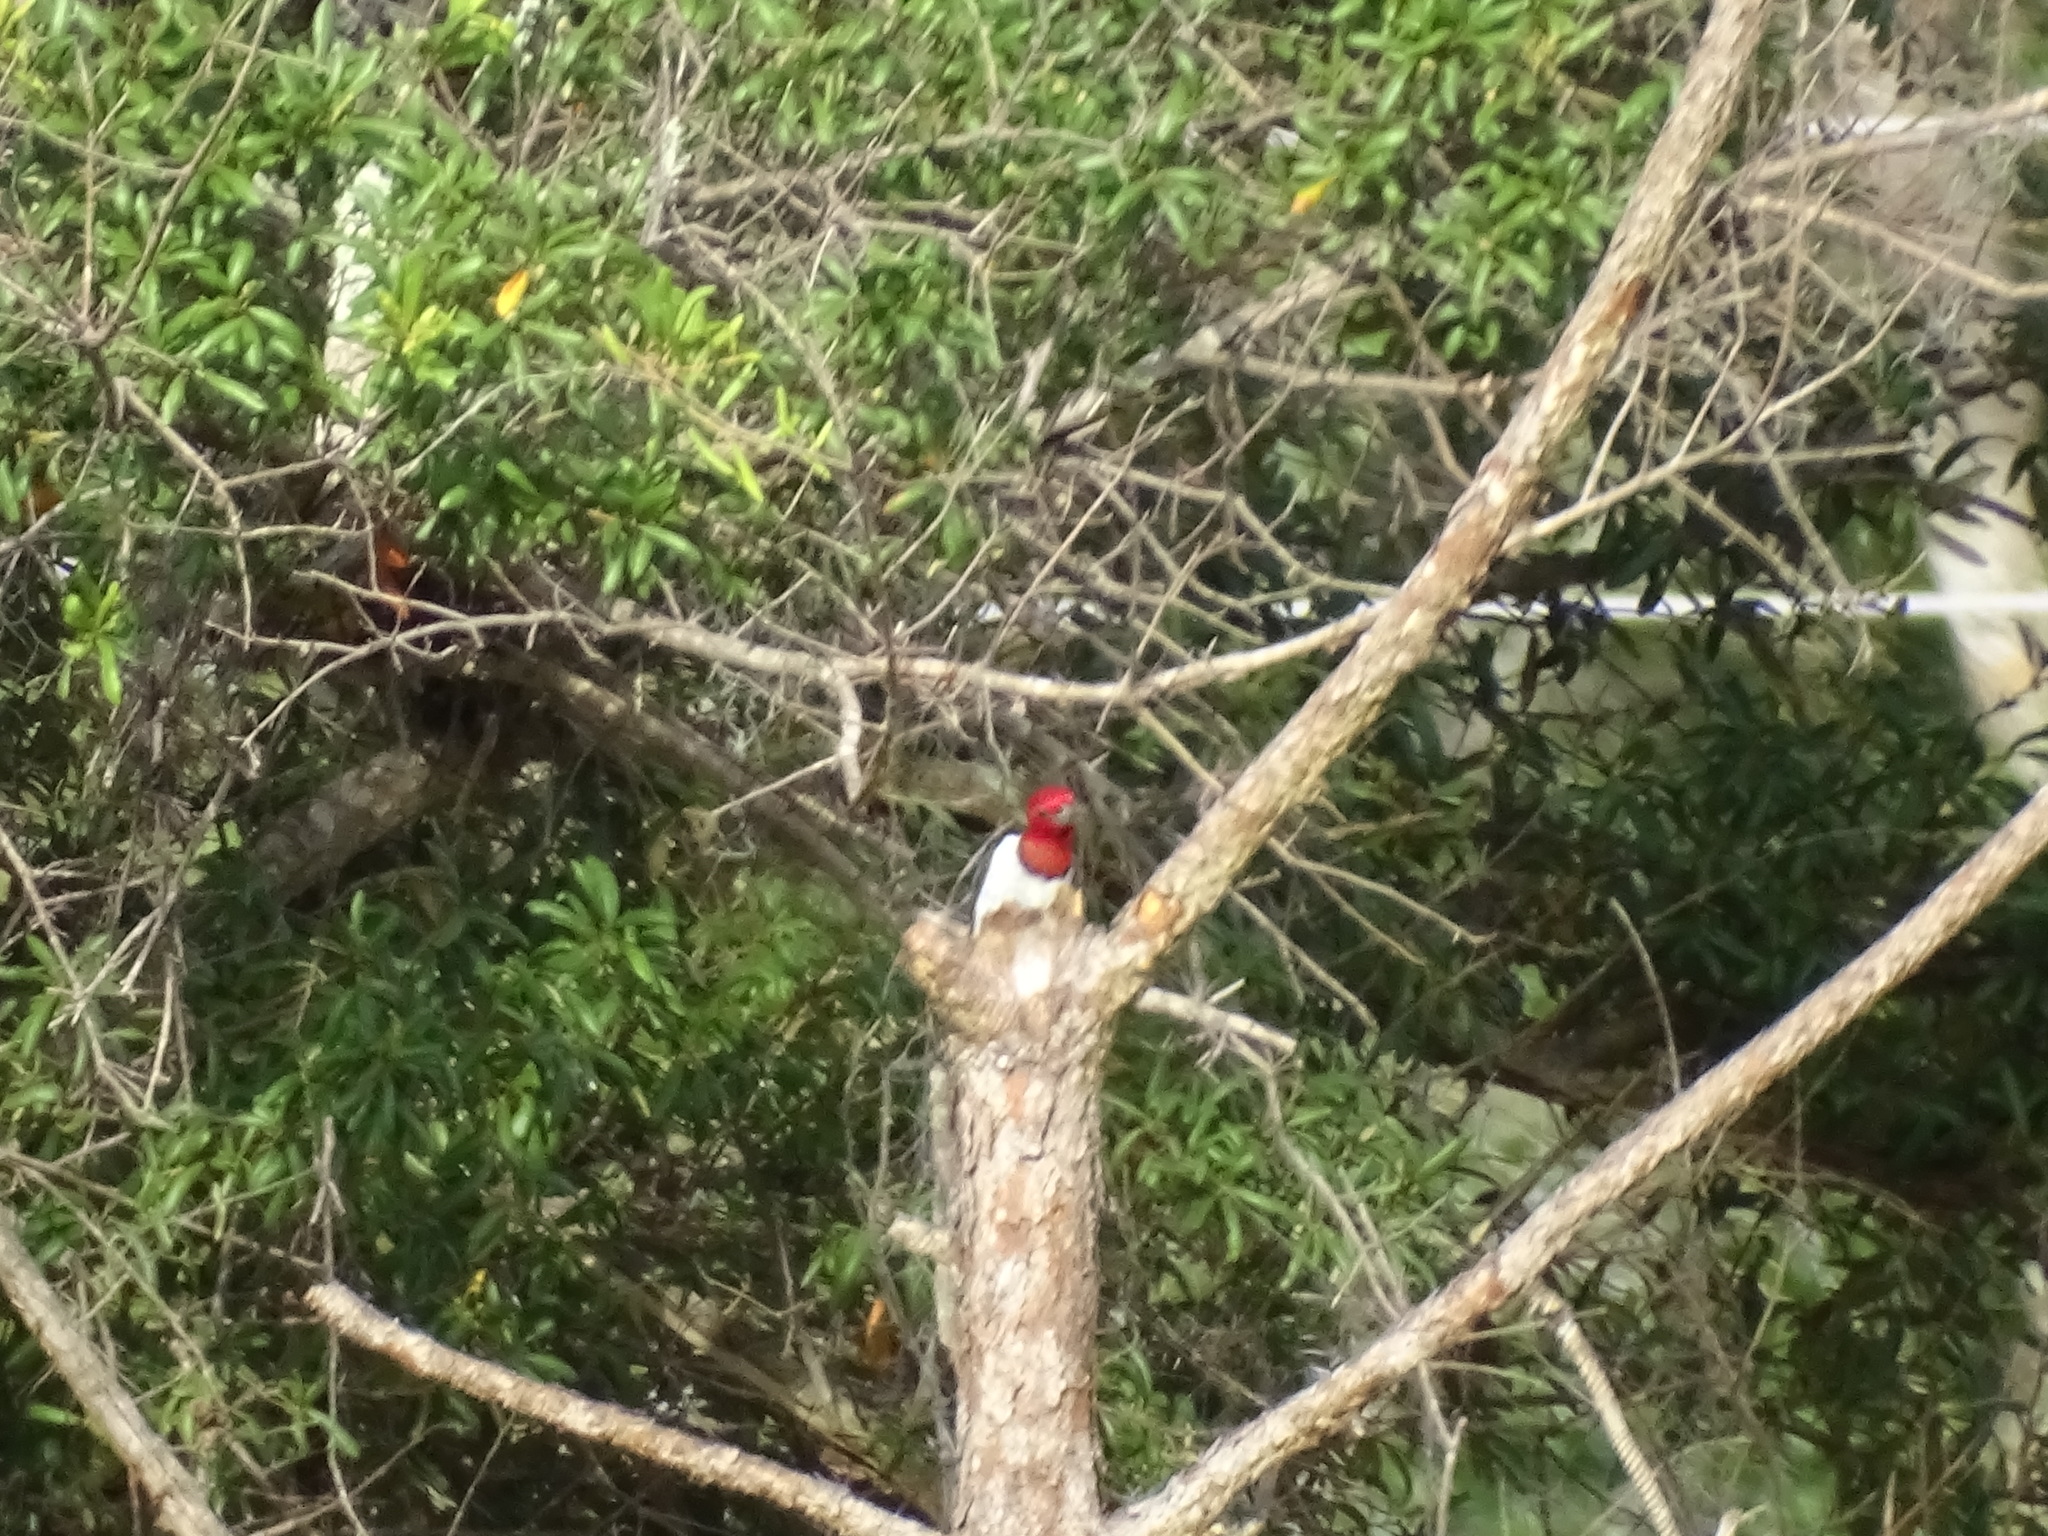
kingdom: Animalia
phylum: Chordata
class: Aves
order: Piciformes
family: Picidae
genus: Melanerpes
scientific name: Melanerpes erythrocephalus
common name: Red-headed woodpecker
